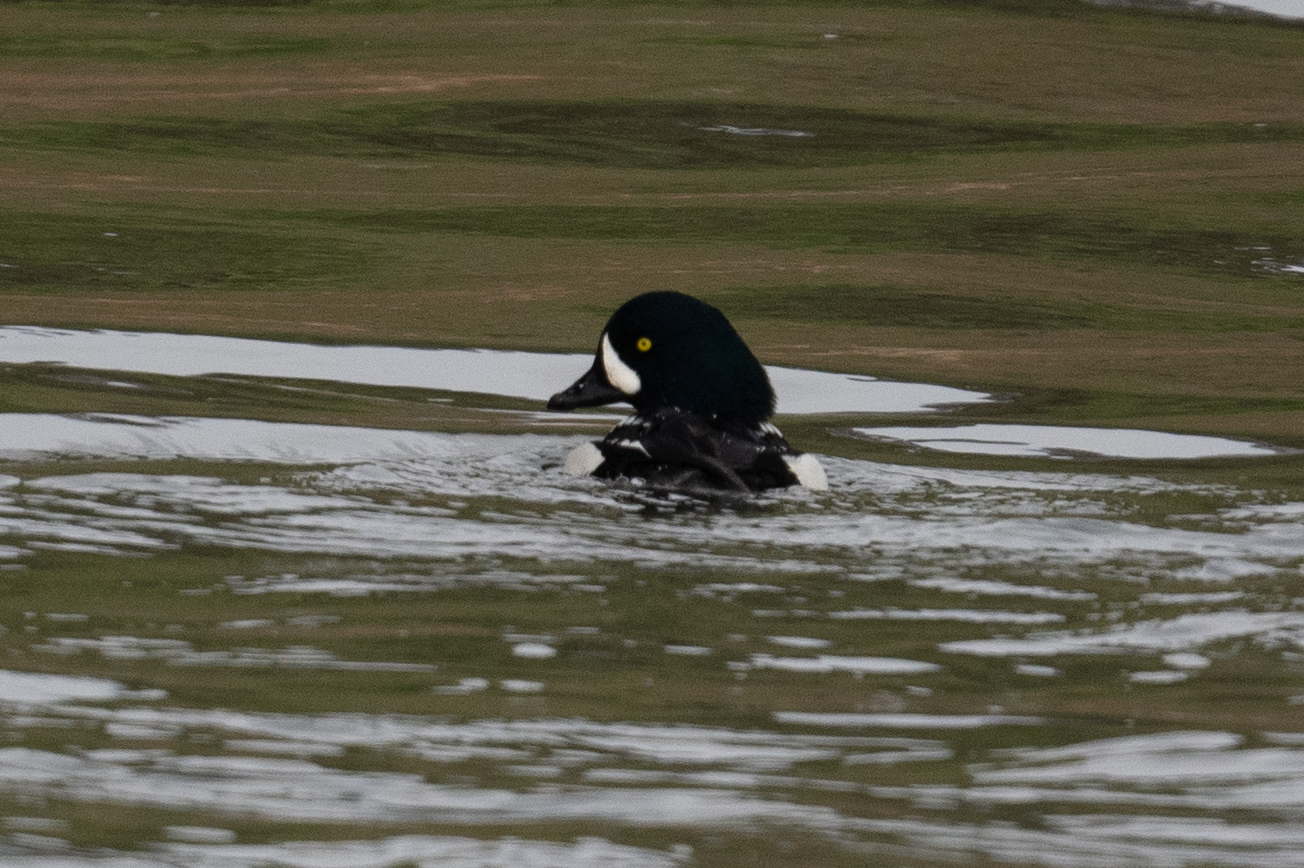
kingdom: Animalia
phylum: Chordata
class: Aves
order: Anseriformes
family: Anatidae
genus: Bucephala
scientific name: Bucephala islandica
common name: Barrow's goldeneye
